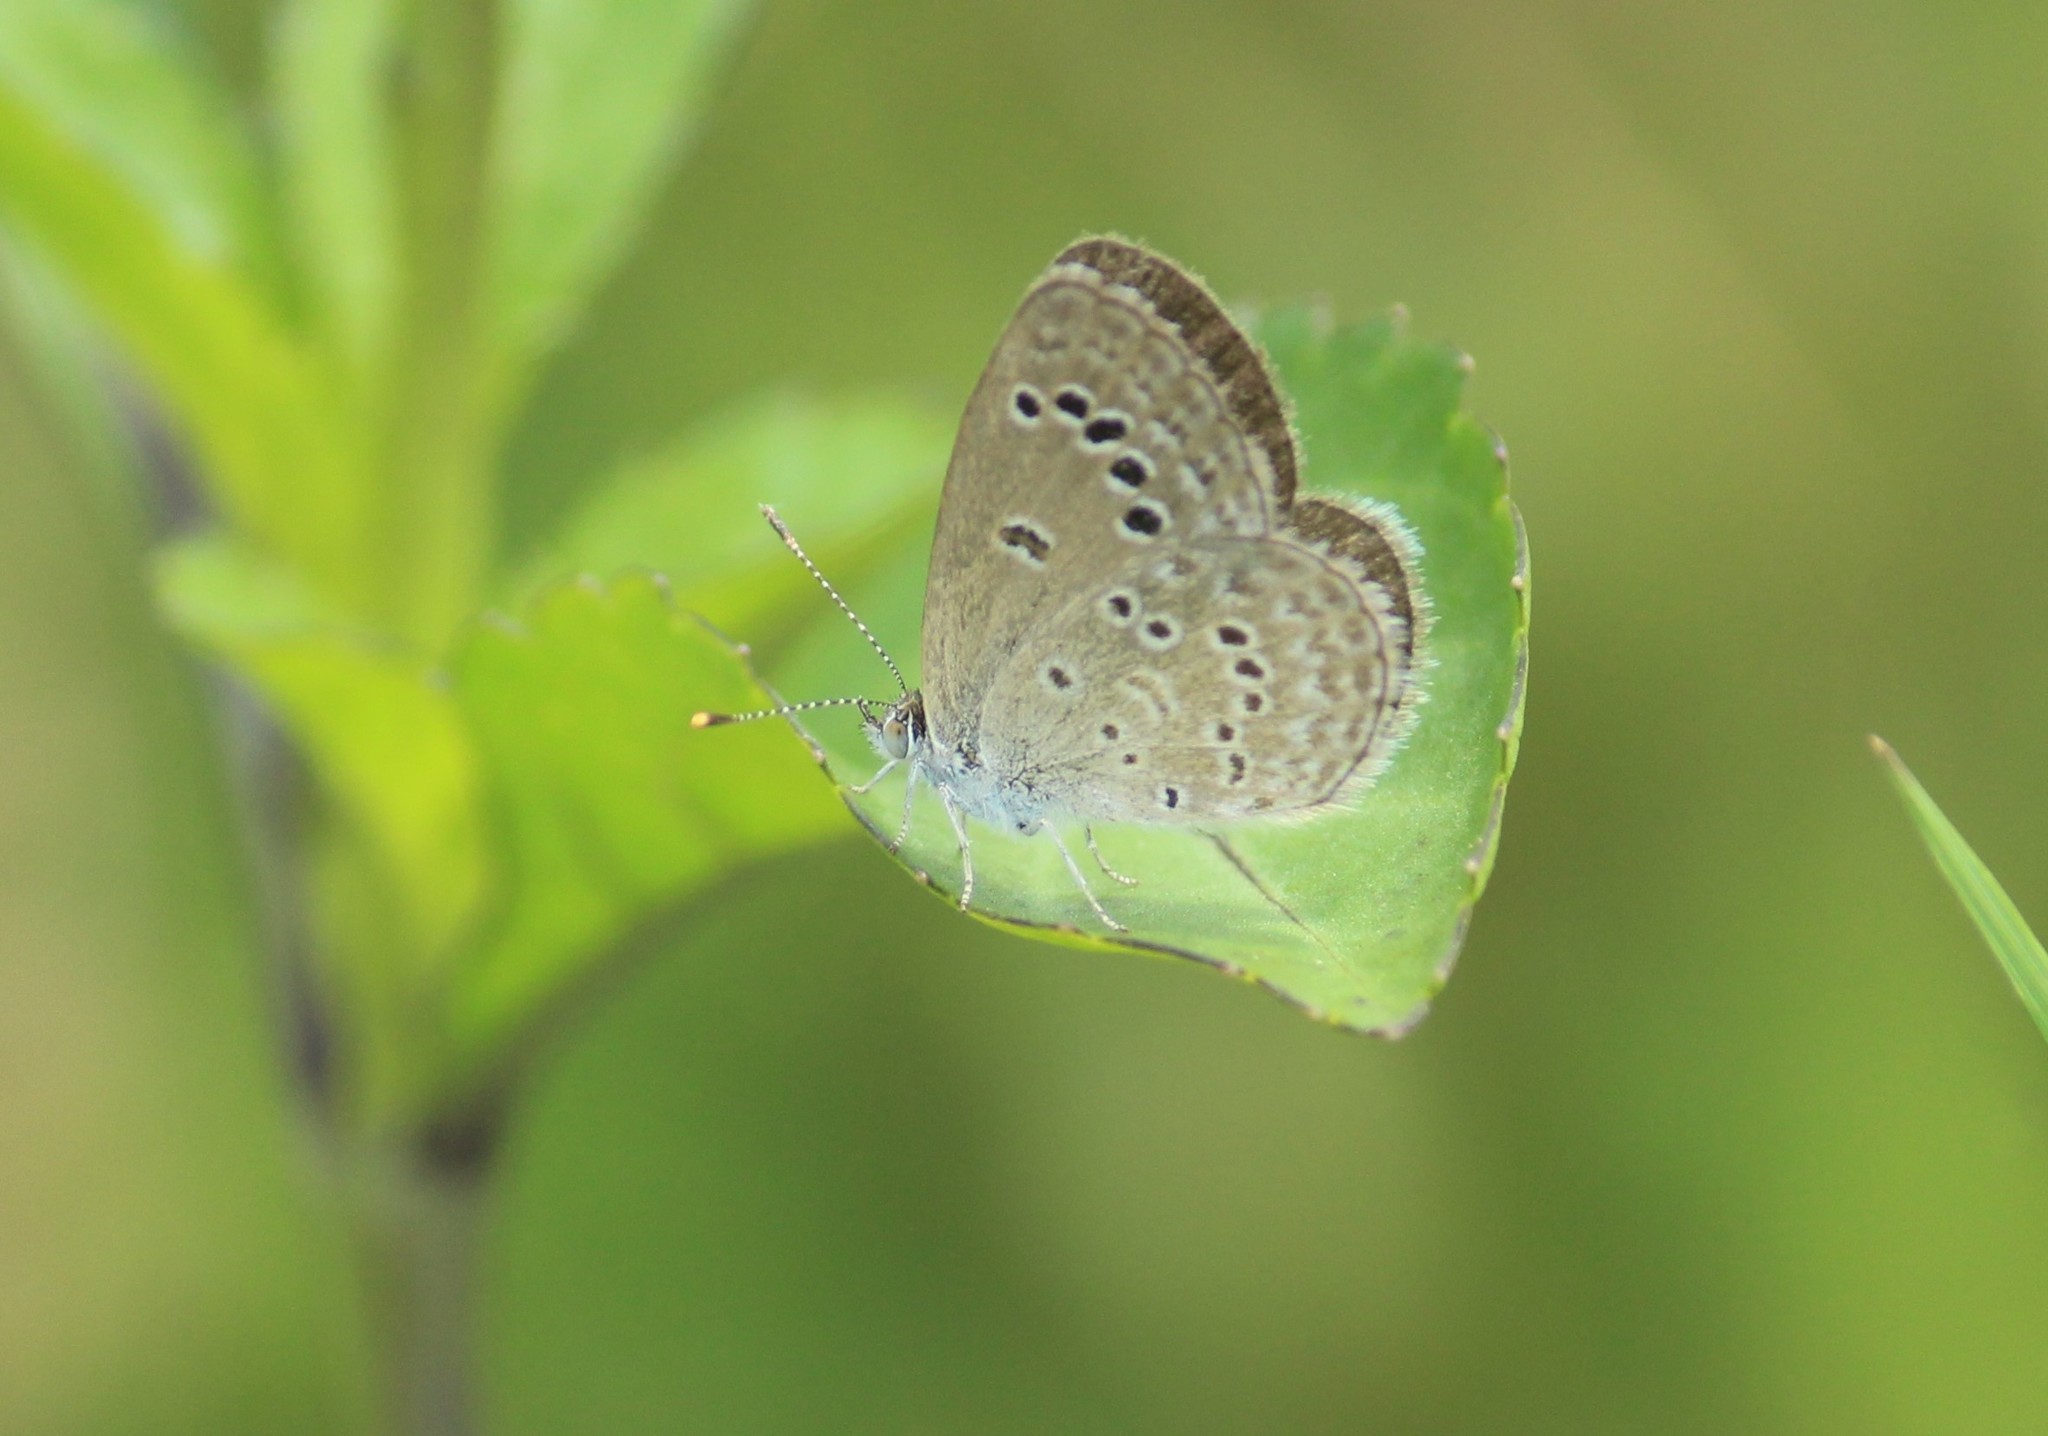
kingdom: Animalia
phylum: Arthropoda
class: Insecta
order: Lepidoptera
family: Lycaenidae
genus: Zizina
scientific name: Zizina otis
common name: Lesser grass blue
